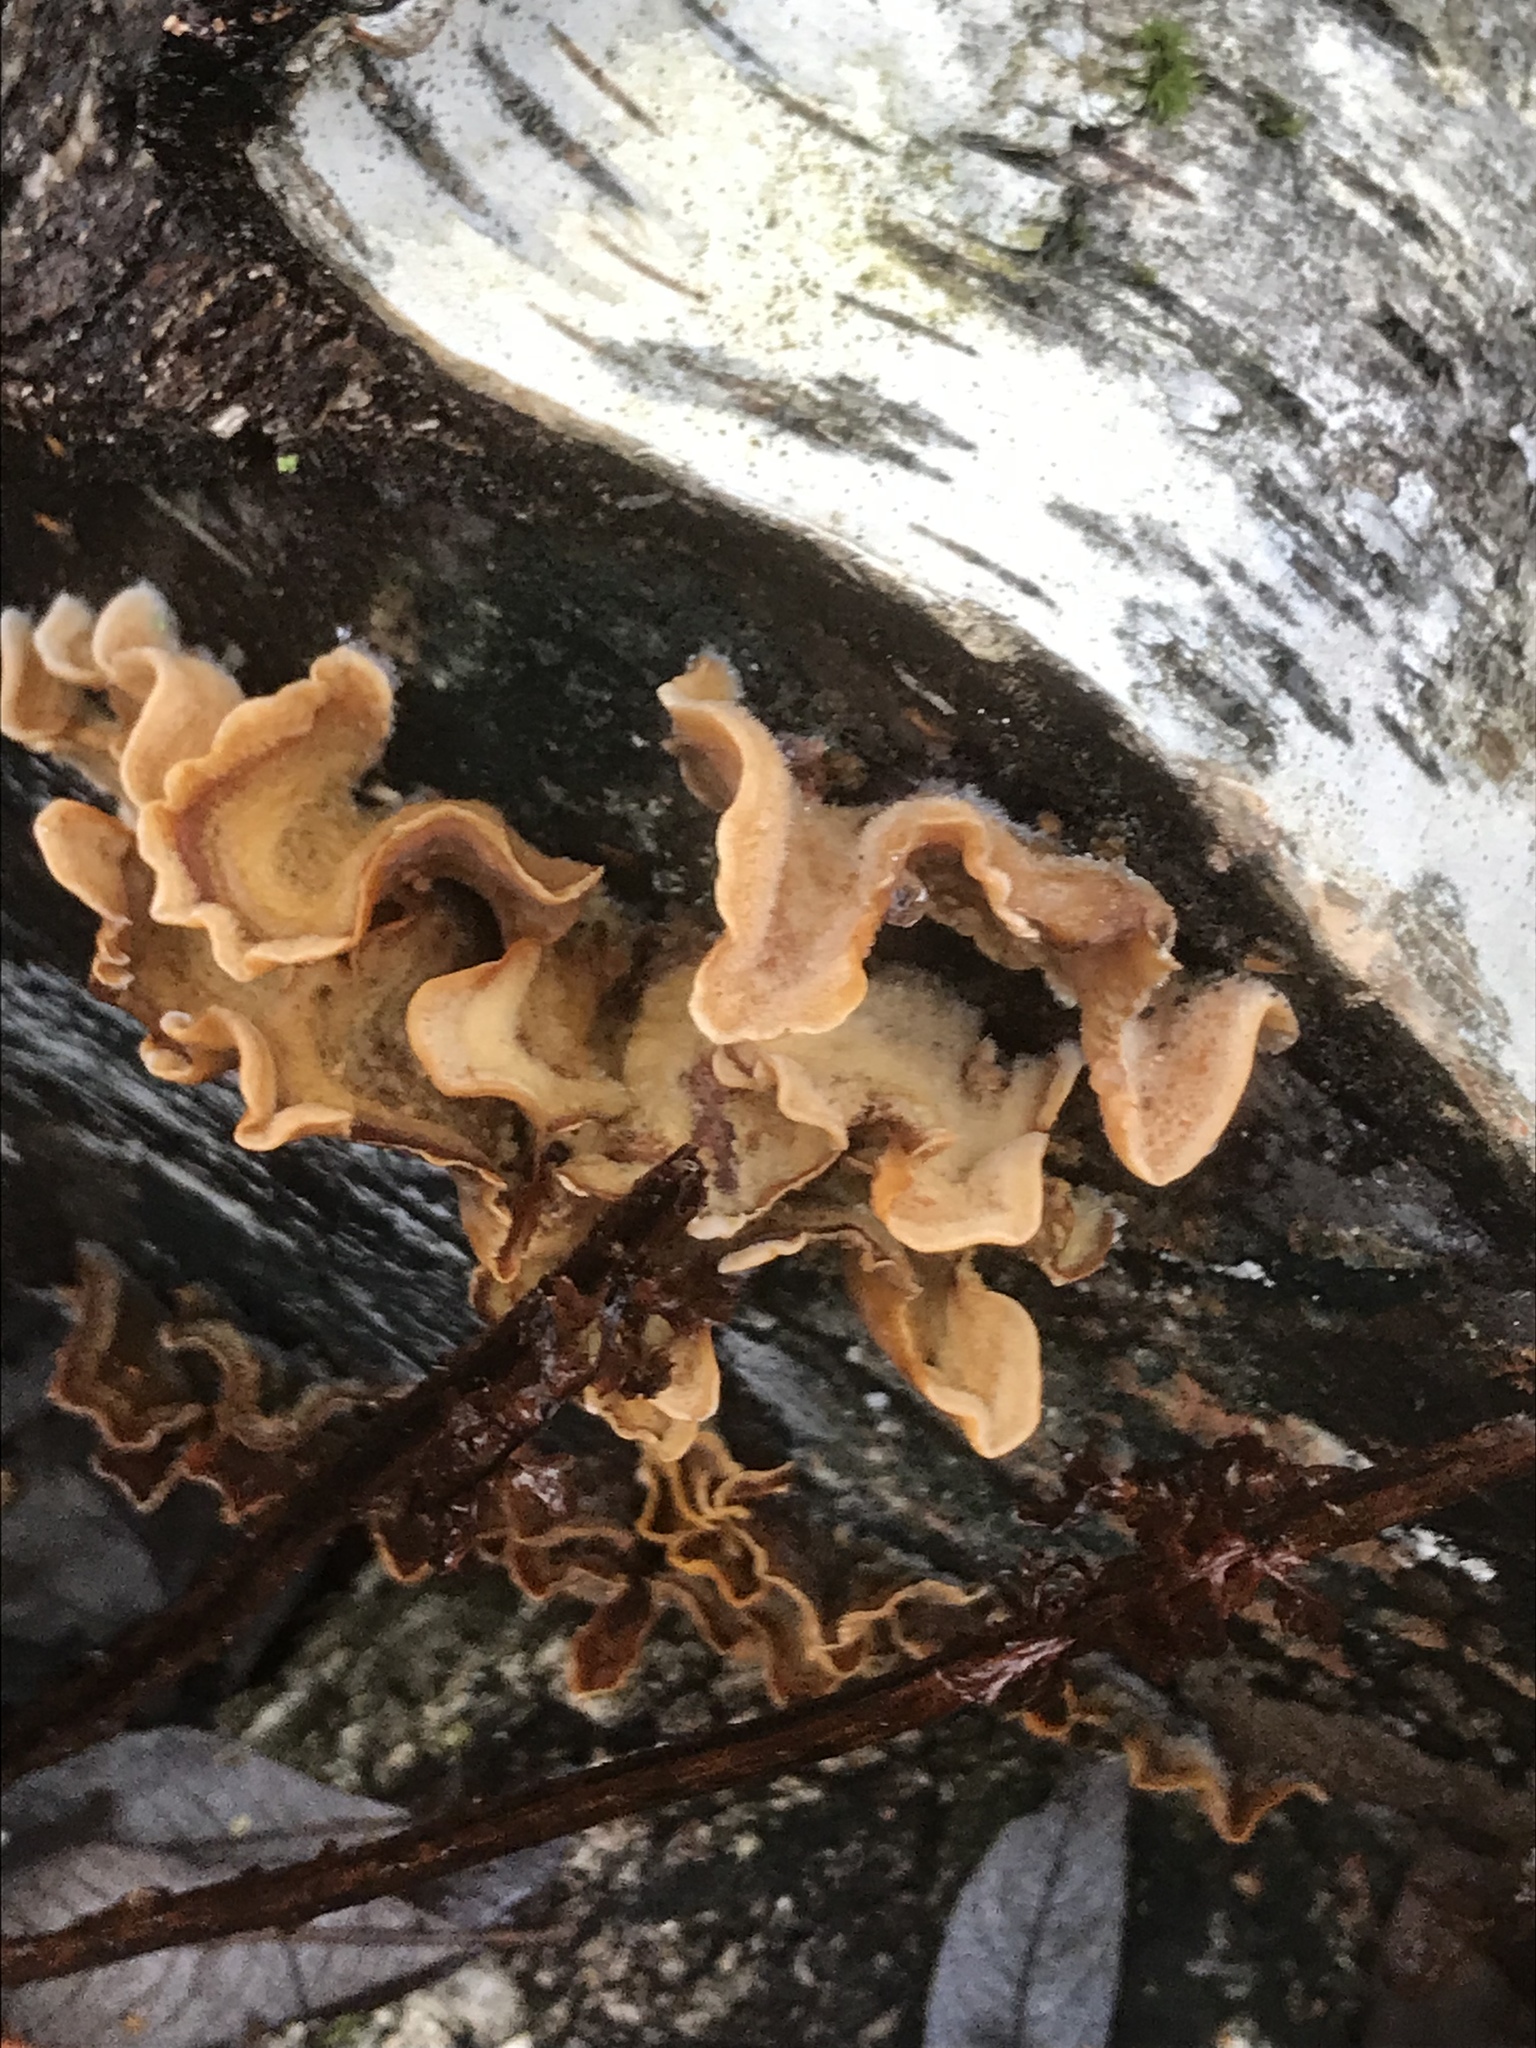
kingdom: Fungi
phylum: Basidiomycota
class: Agaricomycetes
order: Russulales
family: Stereaceae
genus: Stereum
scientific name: Stereum hirsutum
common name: Hairy curtain crust
